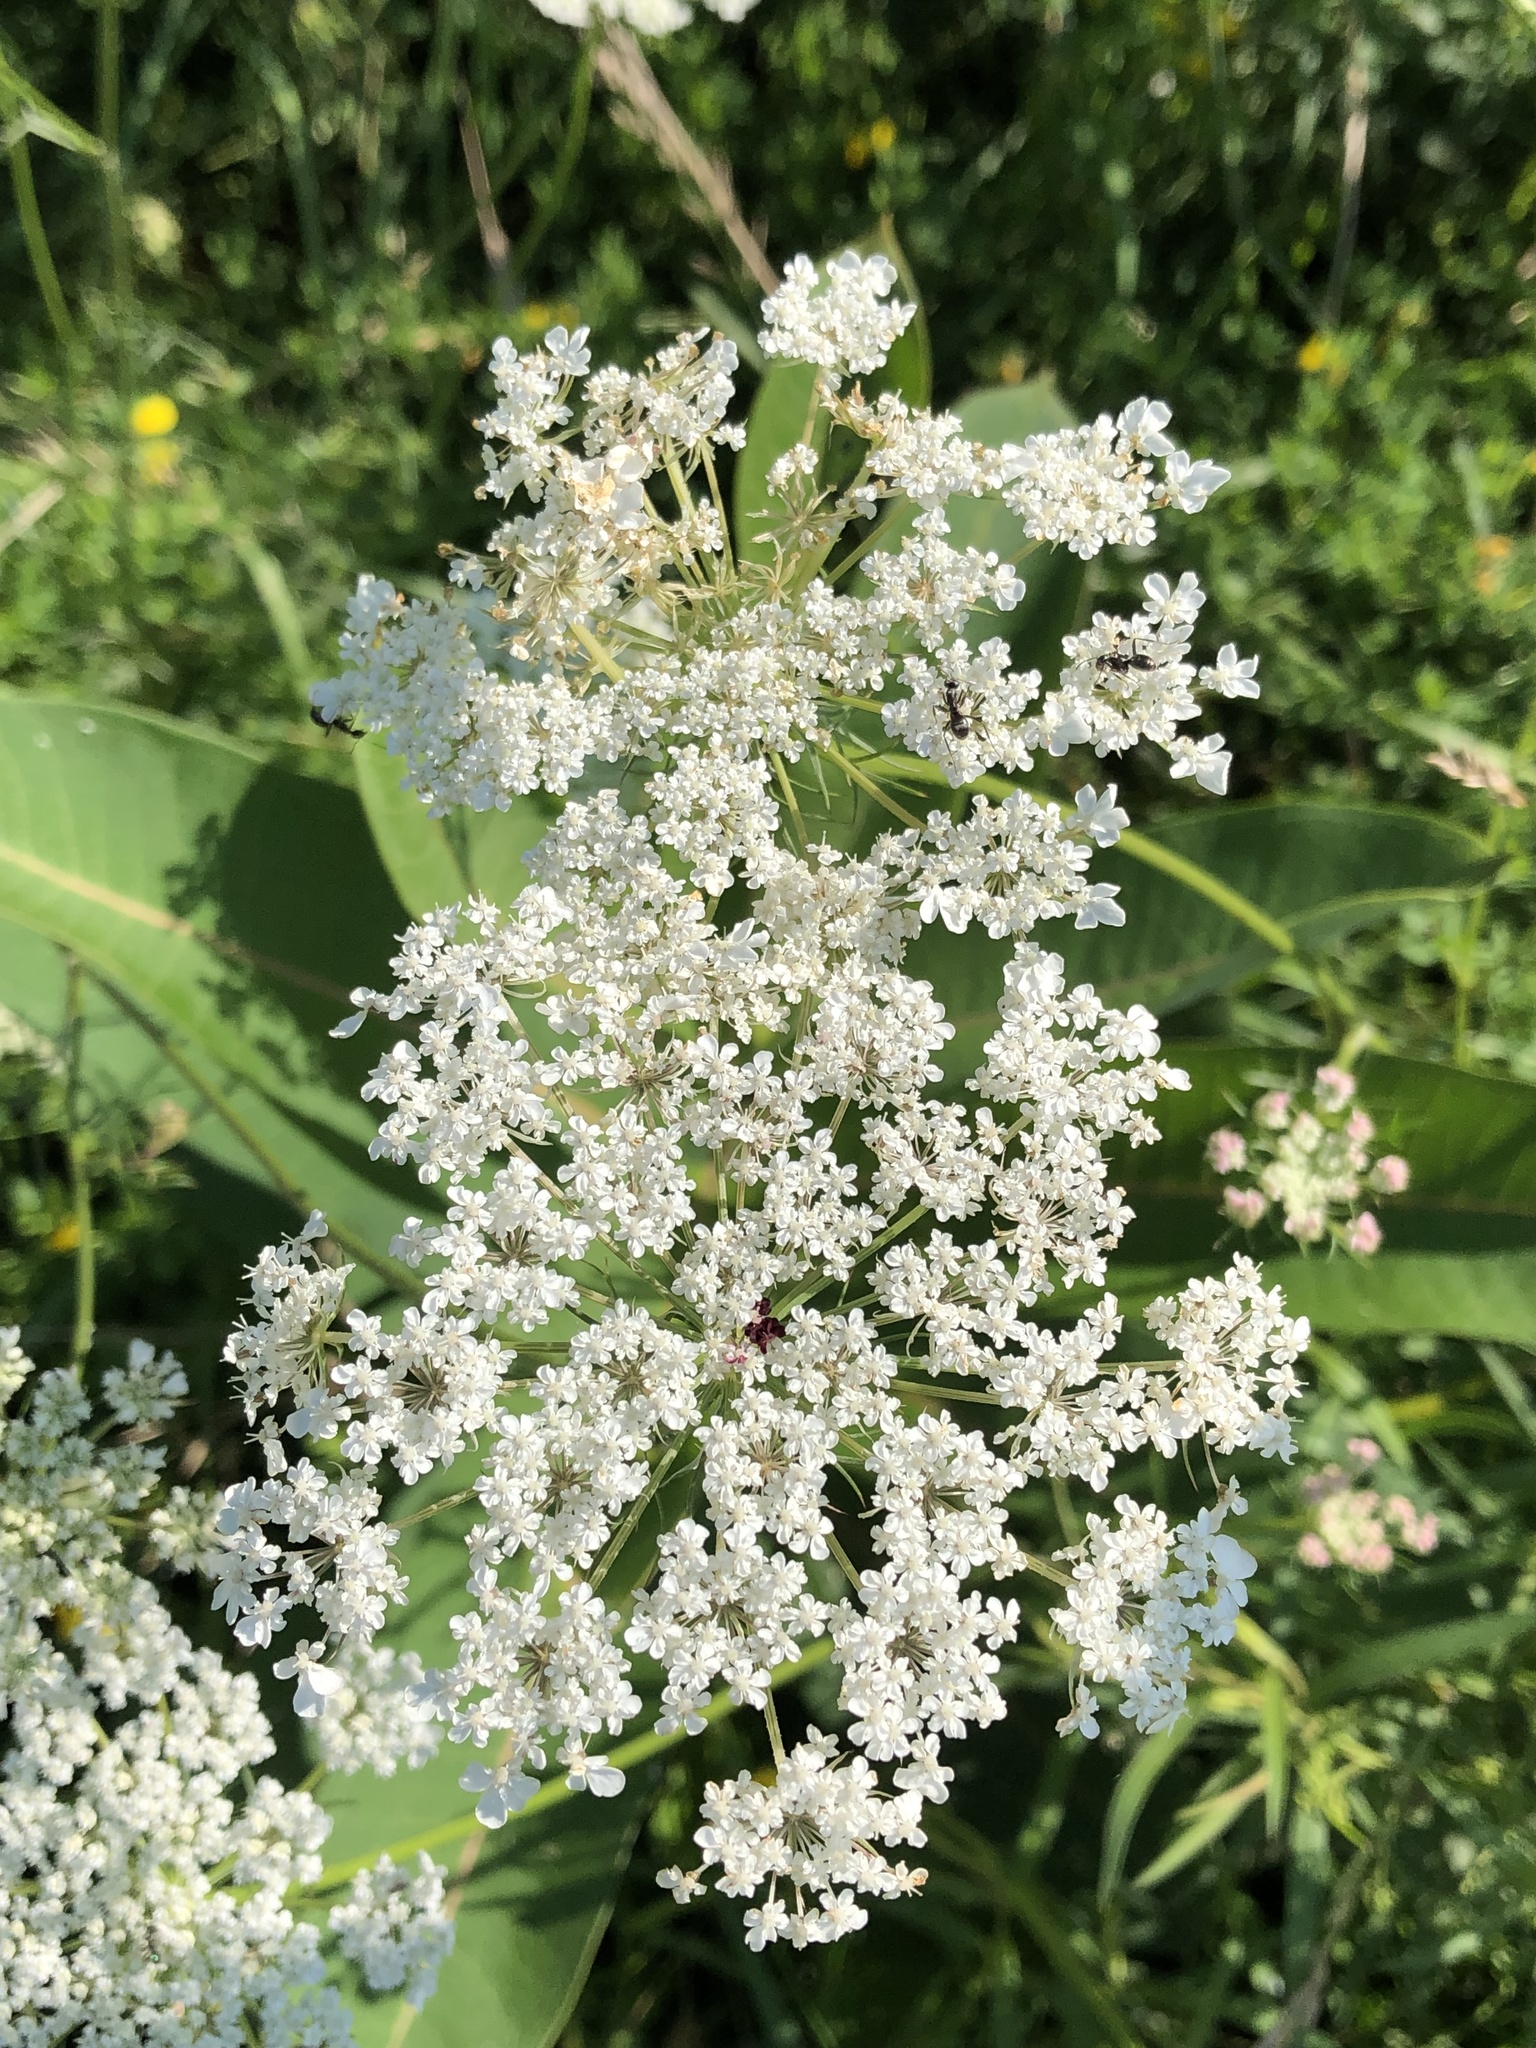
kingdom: Plantae
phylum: Tracheophyta
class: Magnoliopsida
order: Apiales
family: Apiaceae
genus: Daucus
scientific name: Daucus carota
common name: Wild carrot
